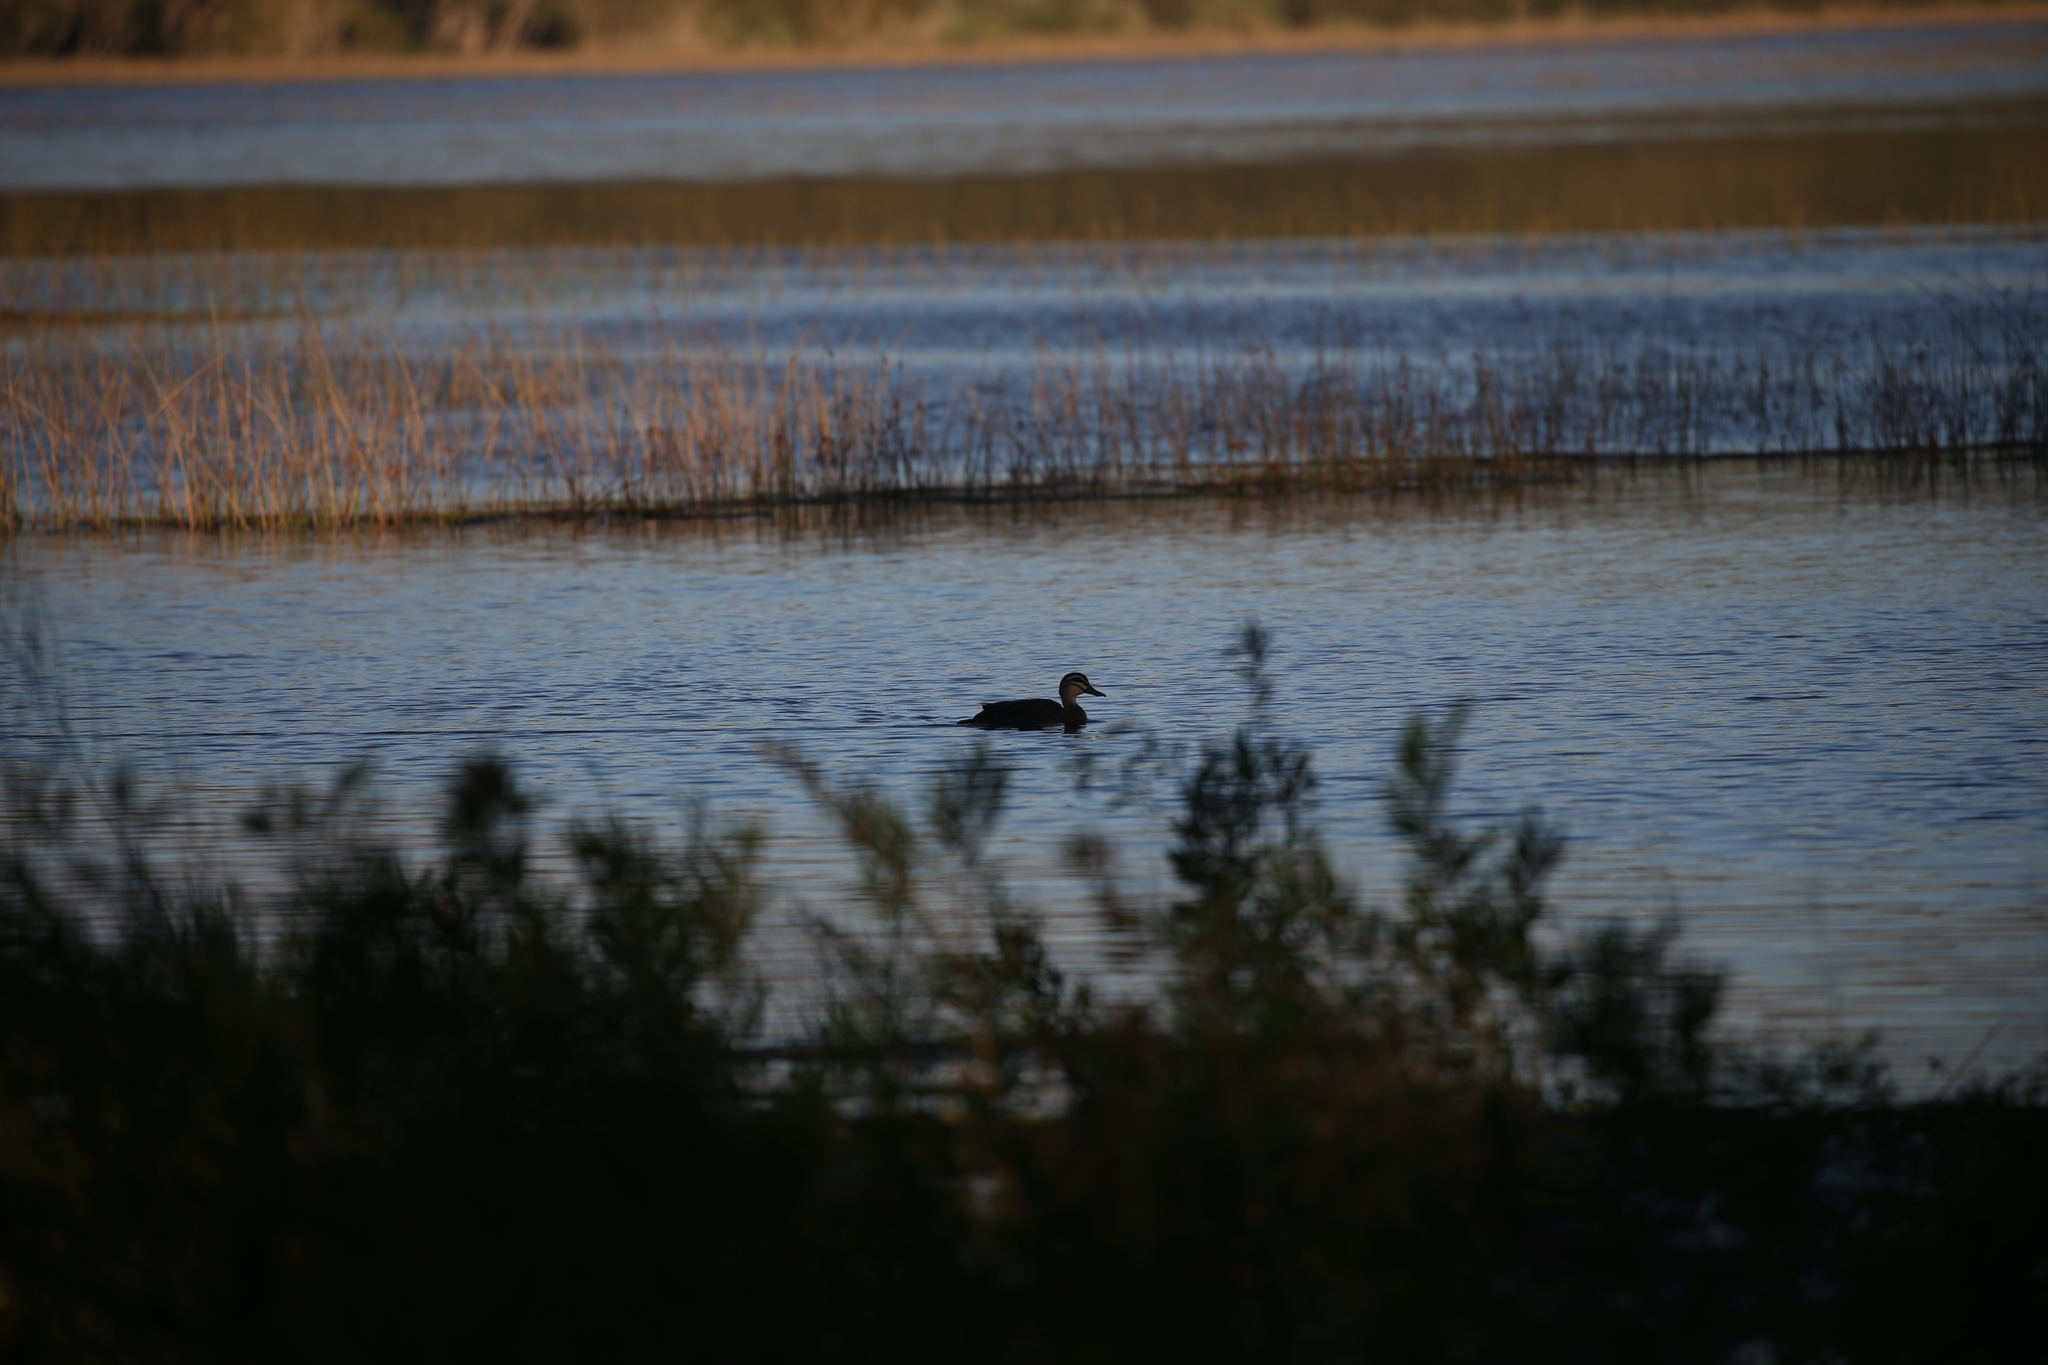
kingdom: Animalia
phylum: Chordata
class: Aves
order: Anseriformes
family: Anatidae
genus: Anas
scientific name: Anas superciliosa
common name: Pacific black duck
